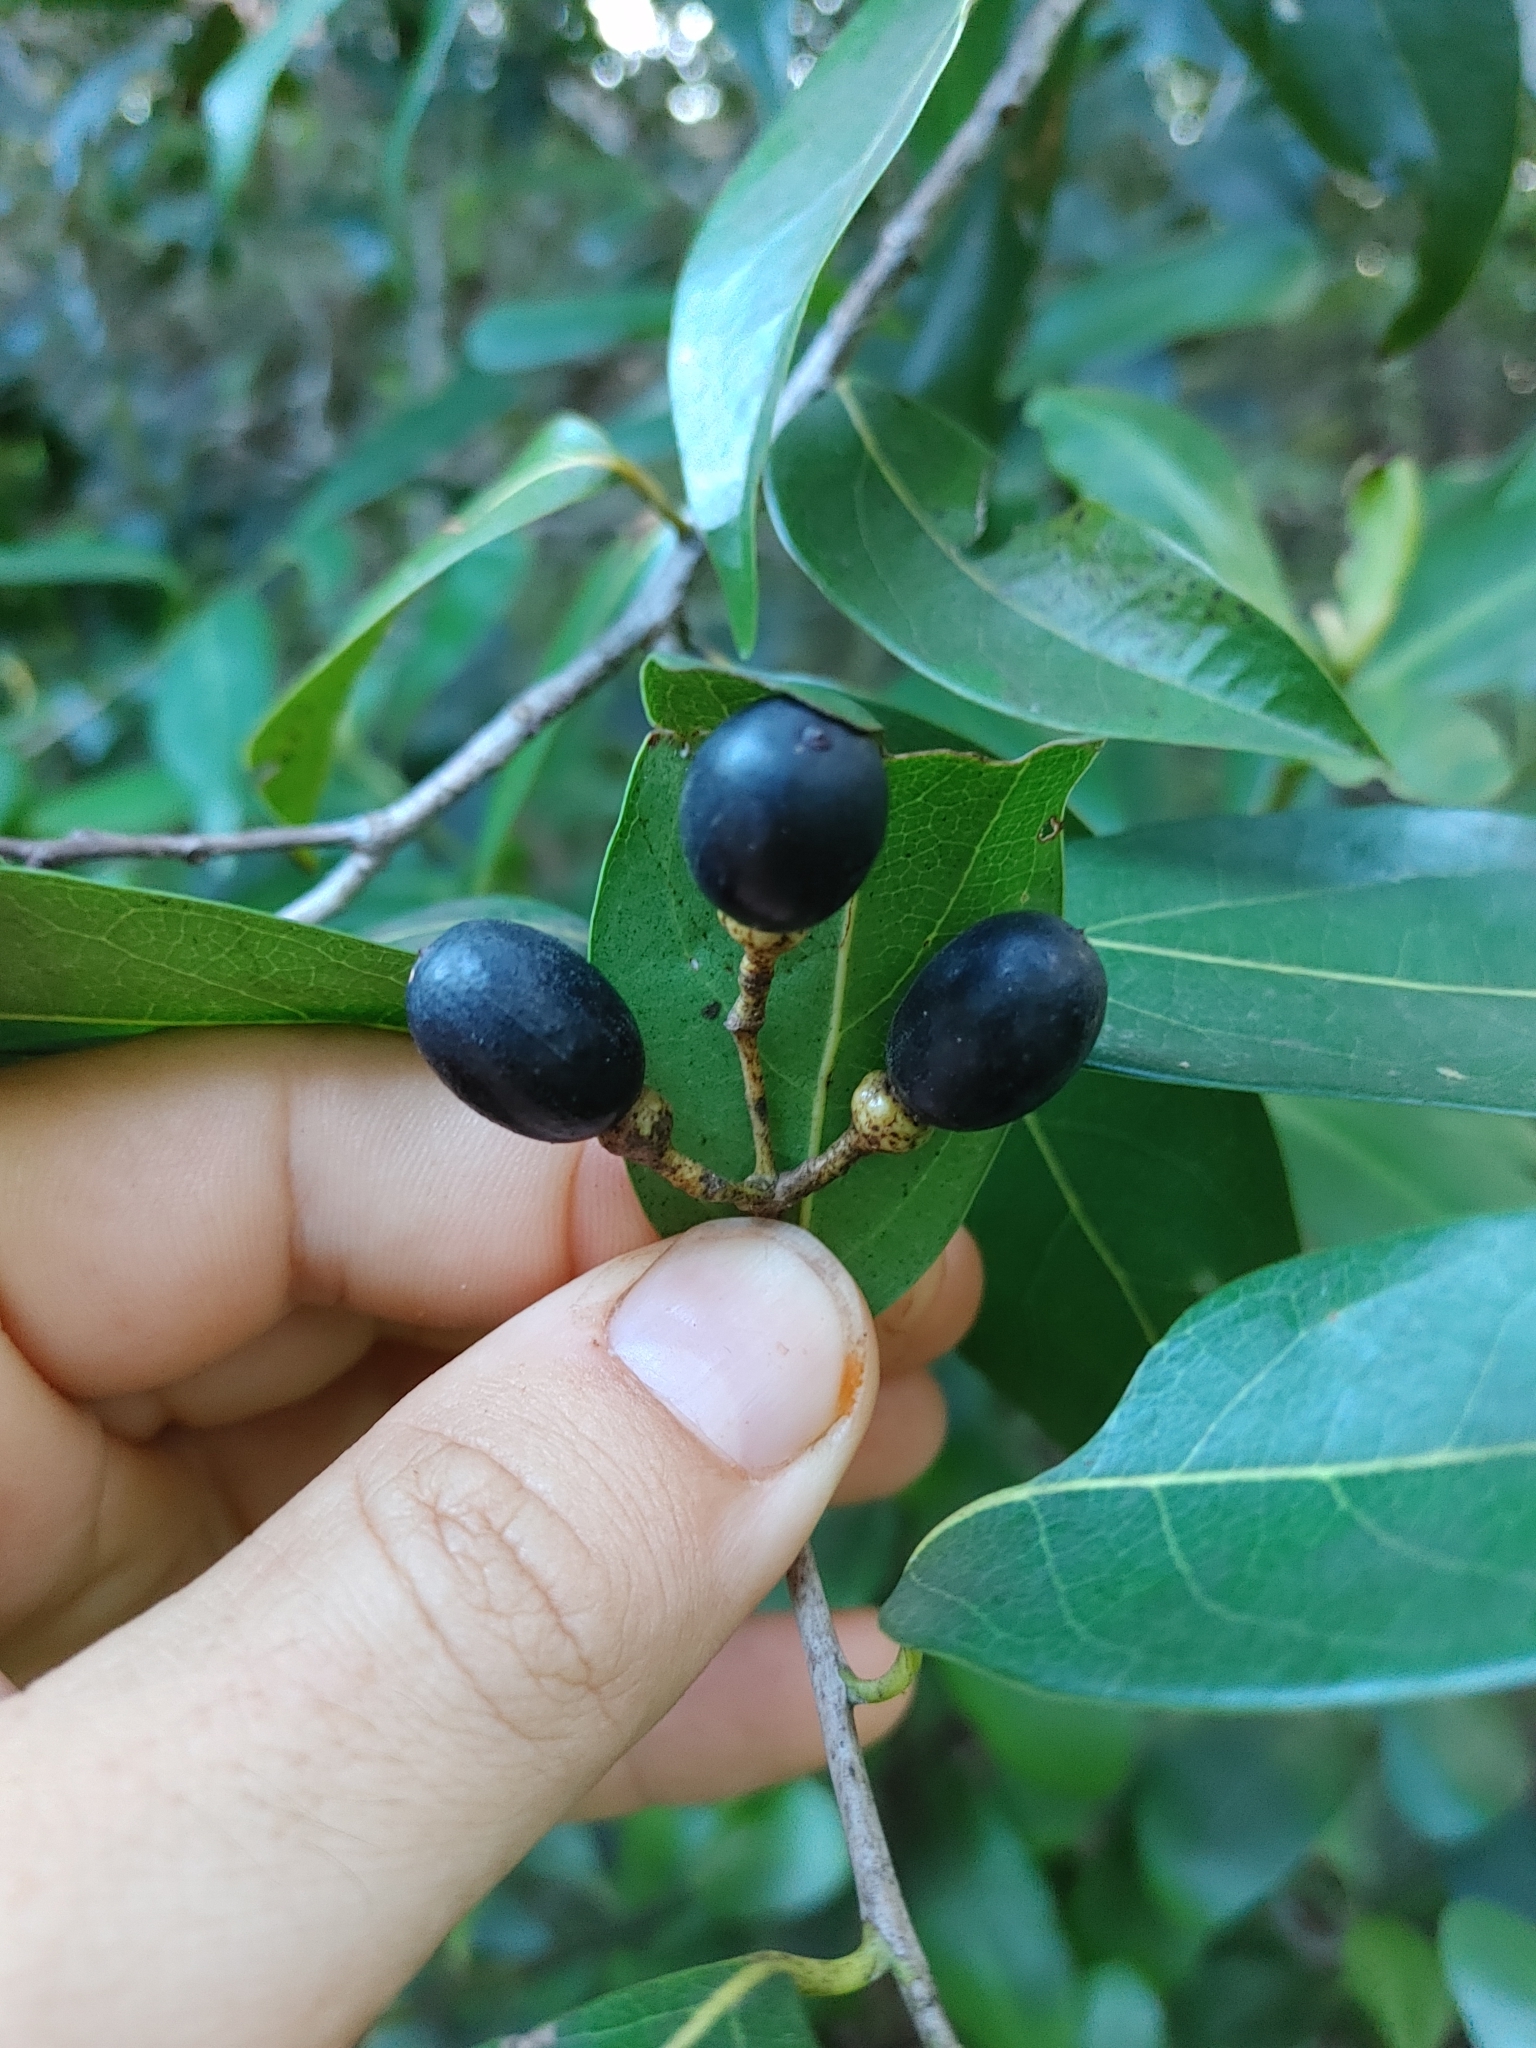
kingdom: Plantae
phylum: Tracheophyta
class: Magnoliopsida
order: Laurales
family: Lauraceae
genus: Damburneya
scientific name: Damburneya coriacea
